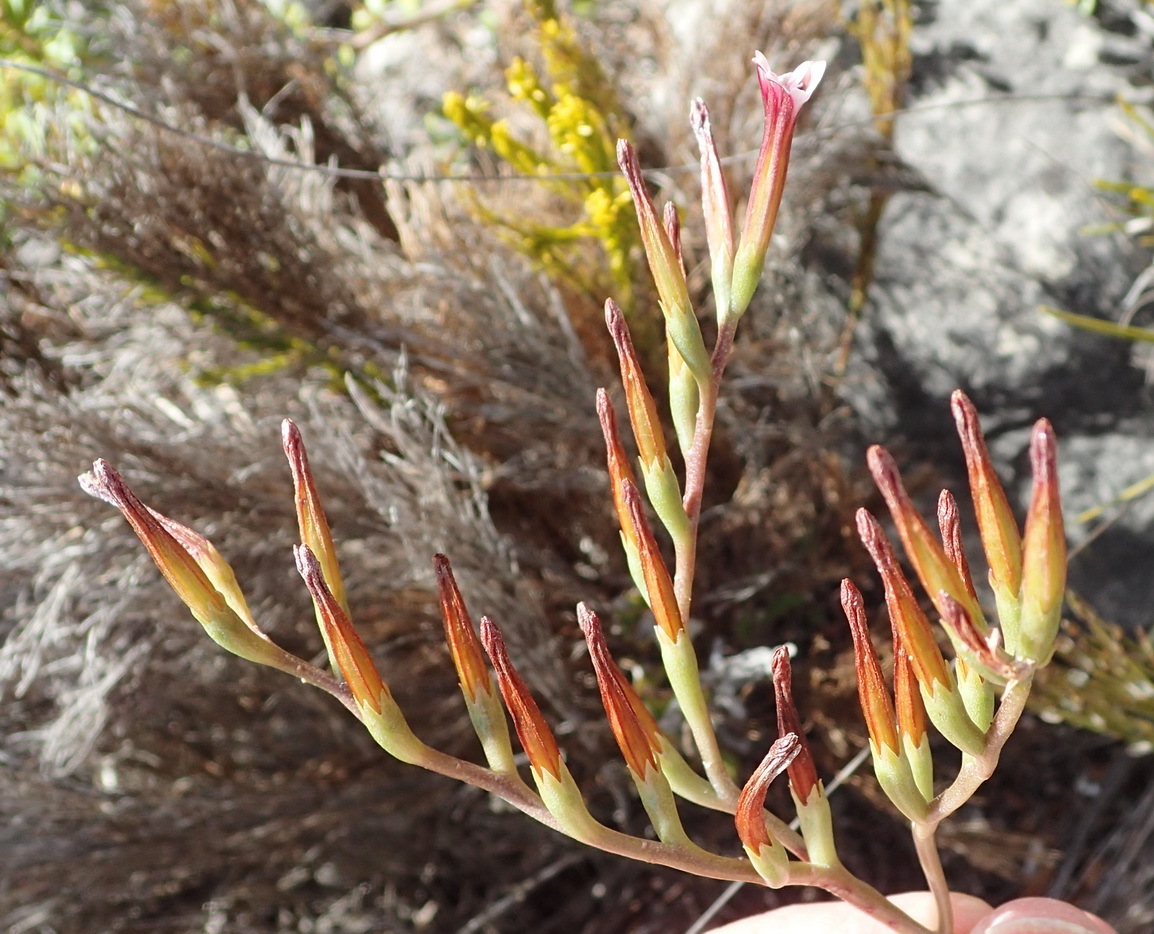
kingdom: Plantae
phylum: Tracheophyta
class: Magnoliopsida
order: Saxifragales
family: Crassulaceae
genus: Adromischus
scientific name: Adromischus caryophyllaceus
